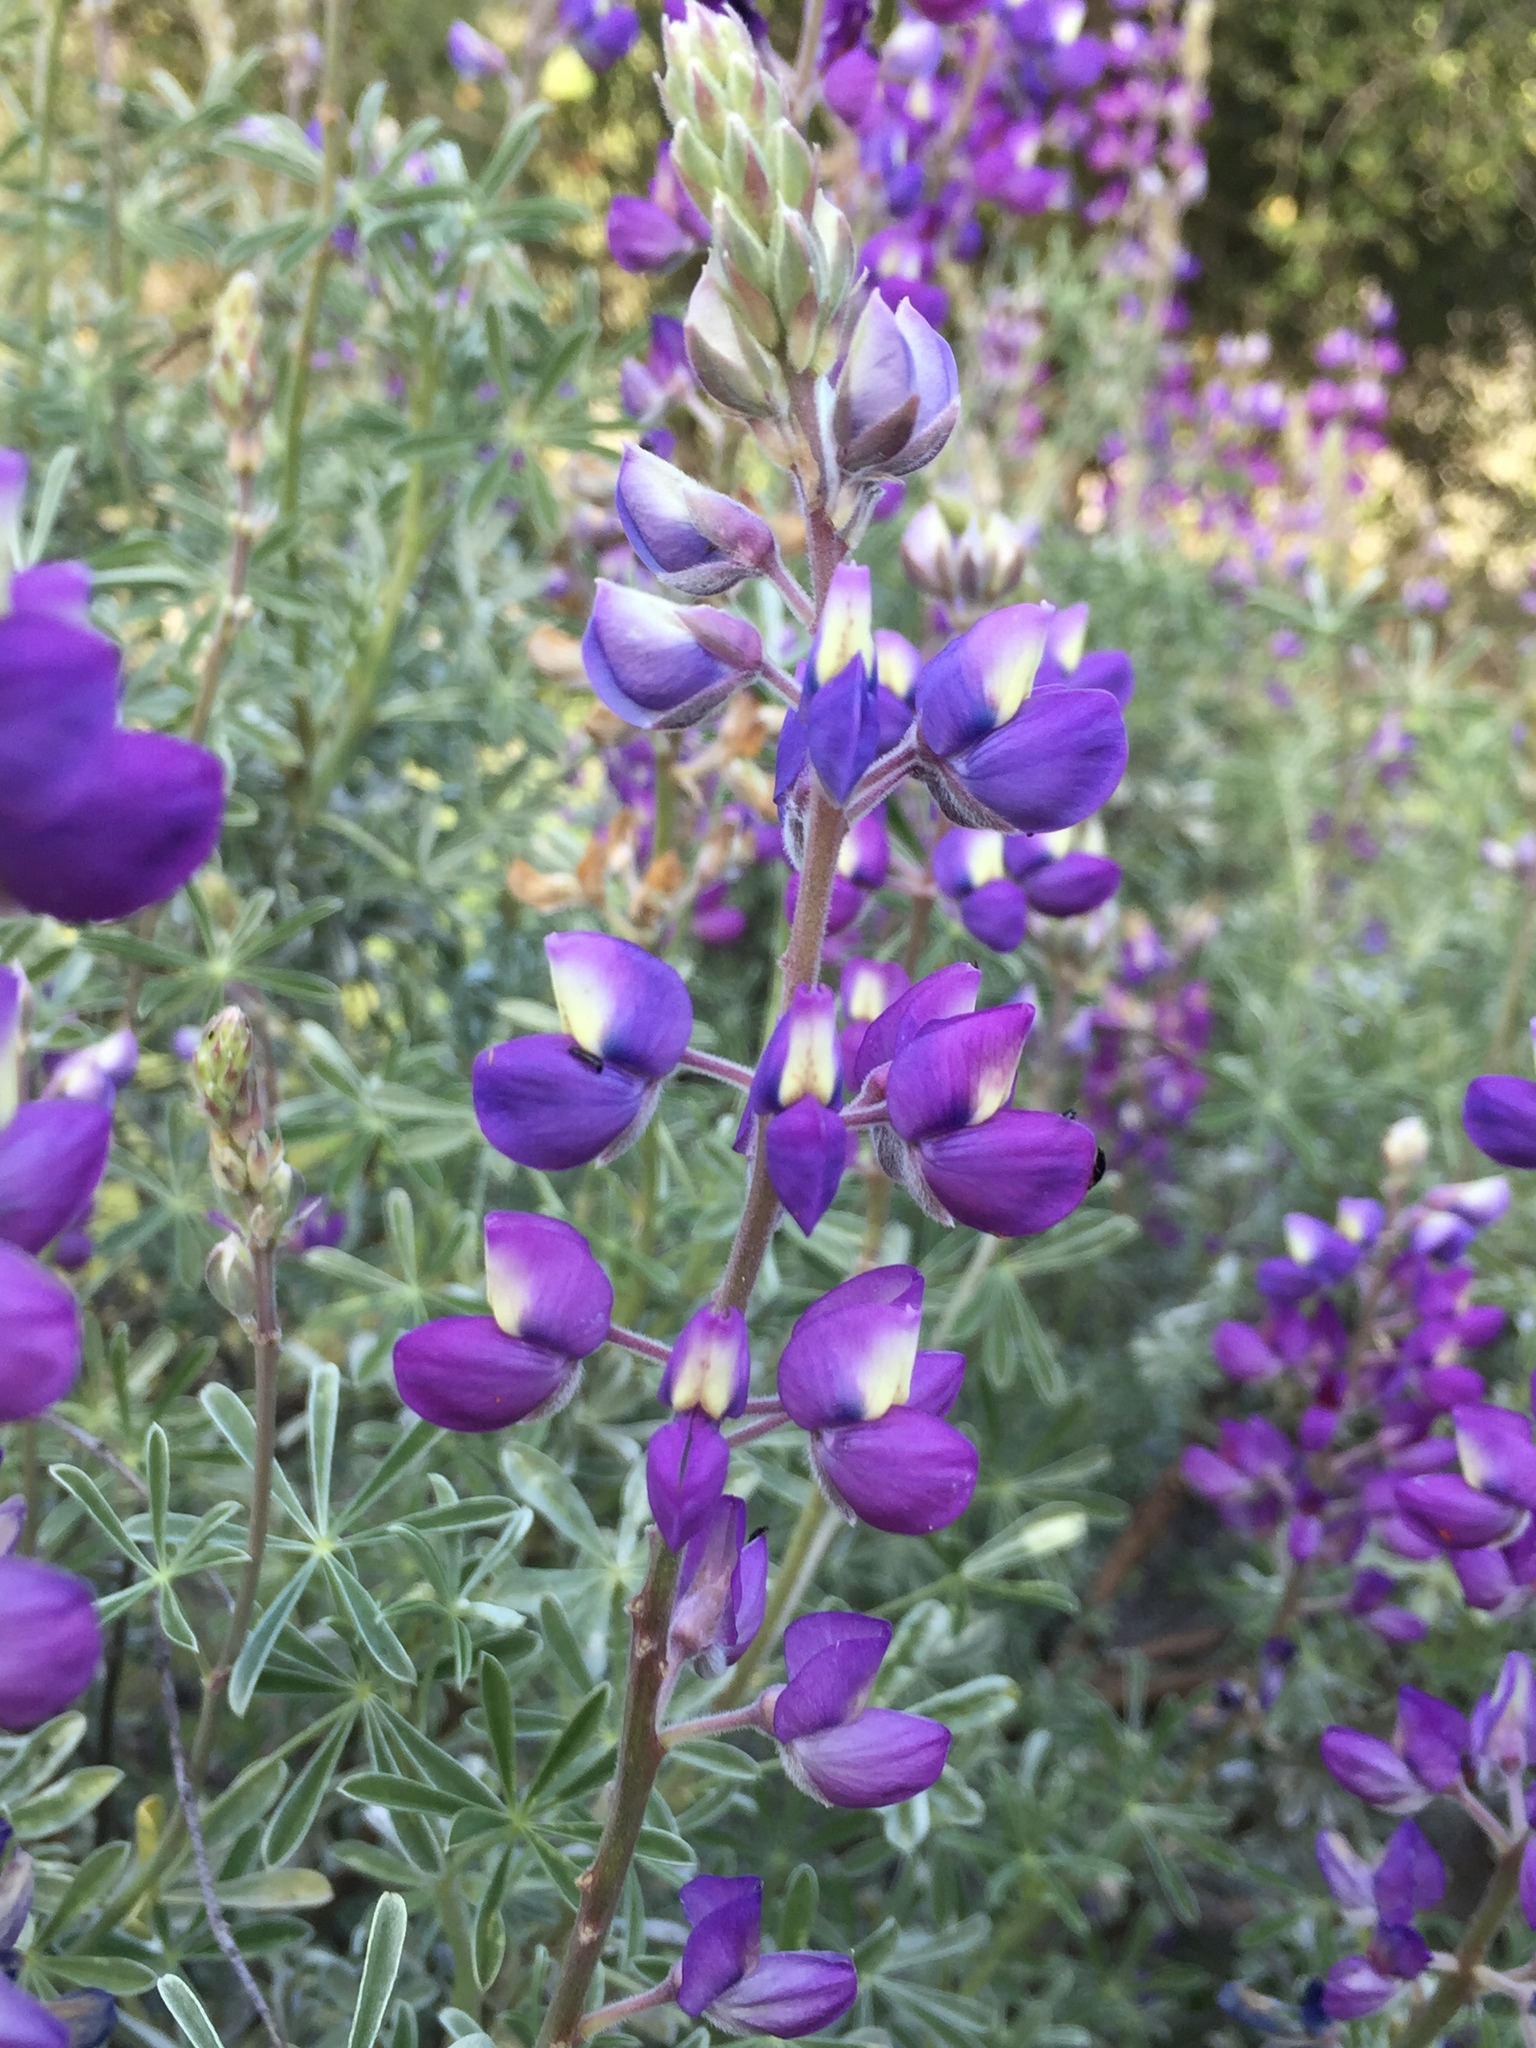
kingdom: Plantae
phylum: Tracheophyta
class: Magnoliopsida
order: Fabales
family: Fabaceae
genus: Lupinus
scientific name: Lupinus albifrons
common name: Foothill lupine
